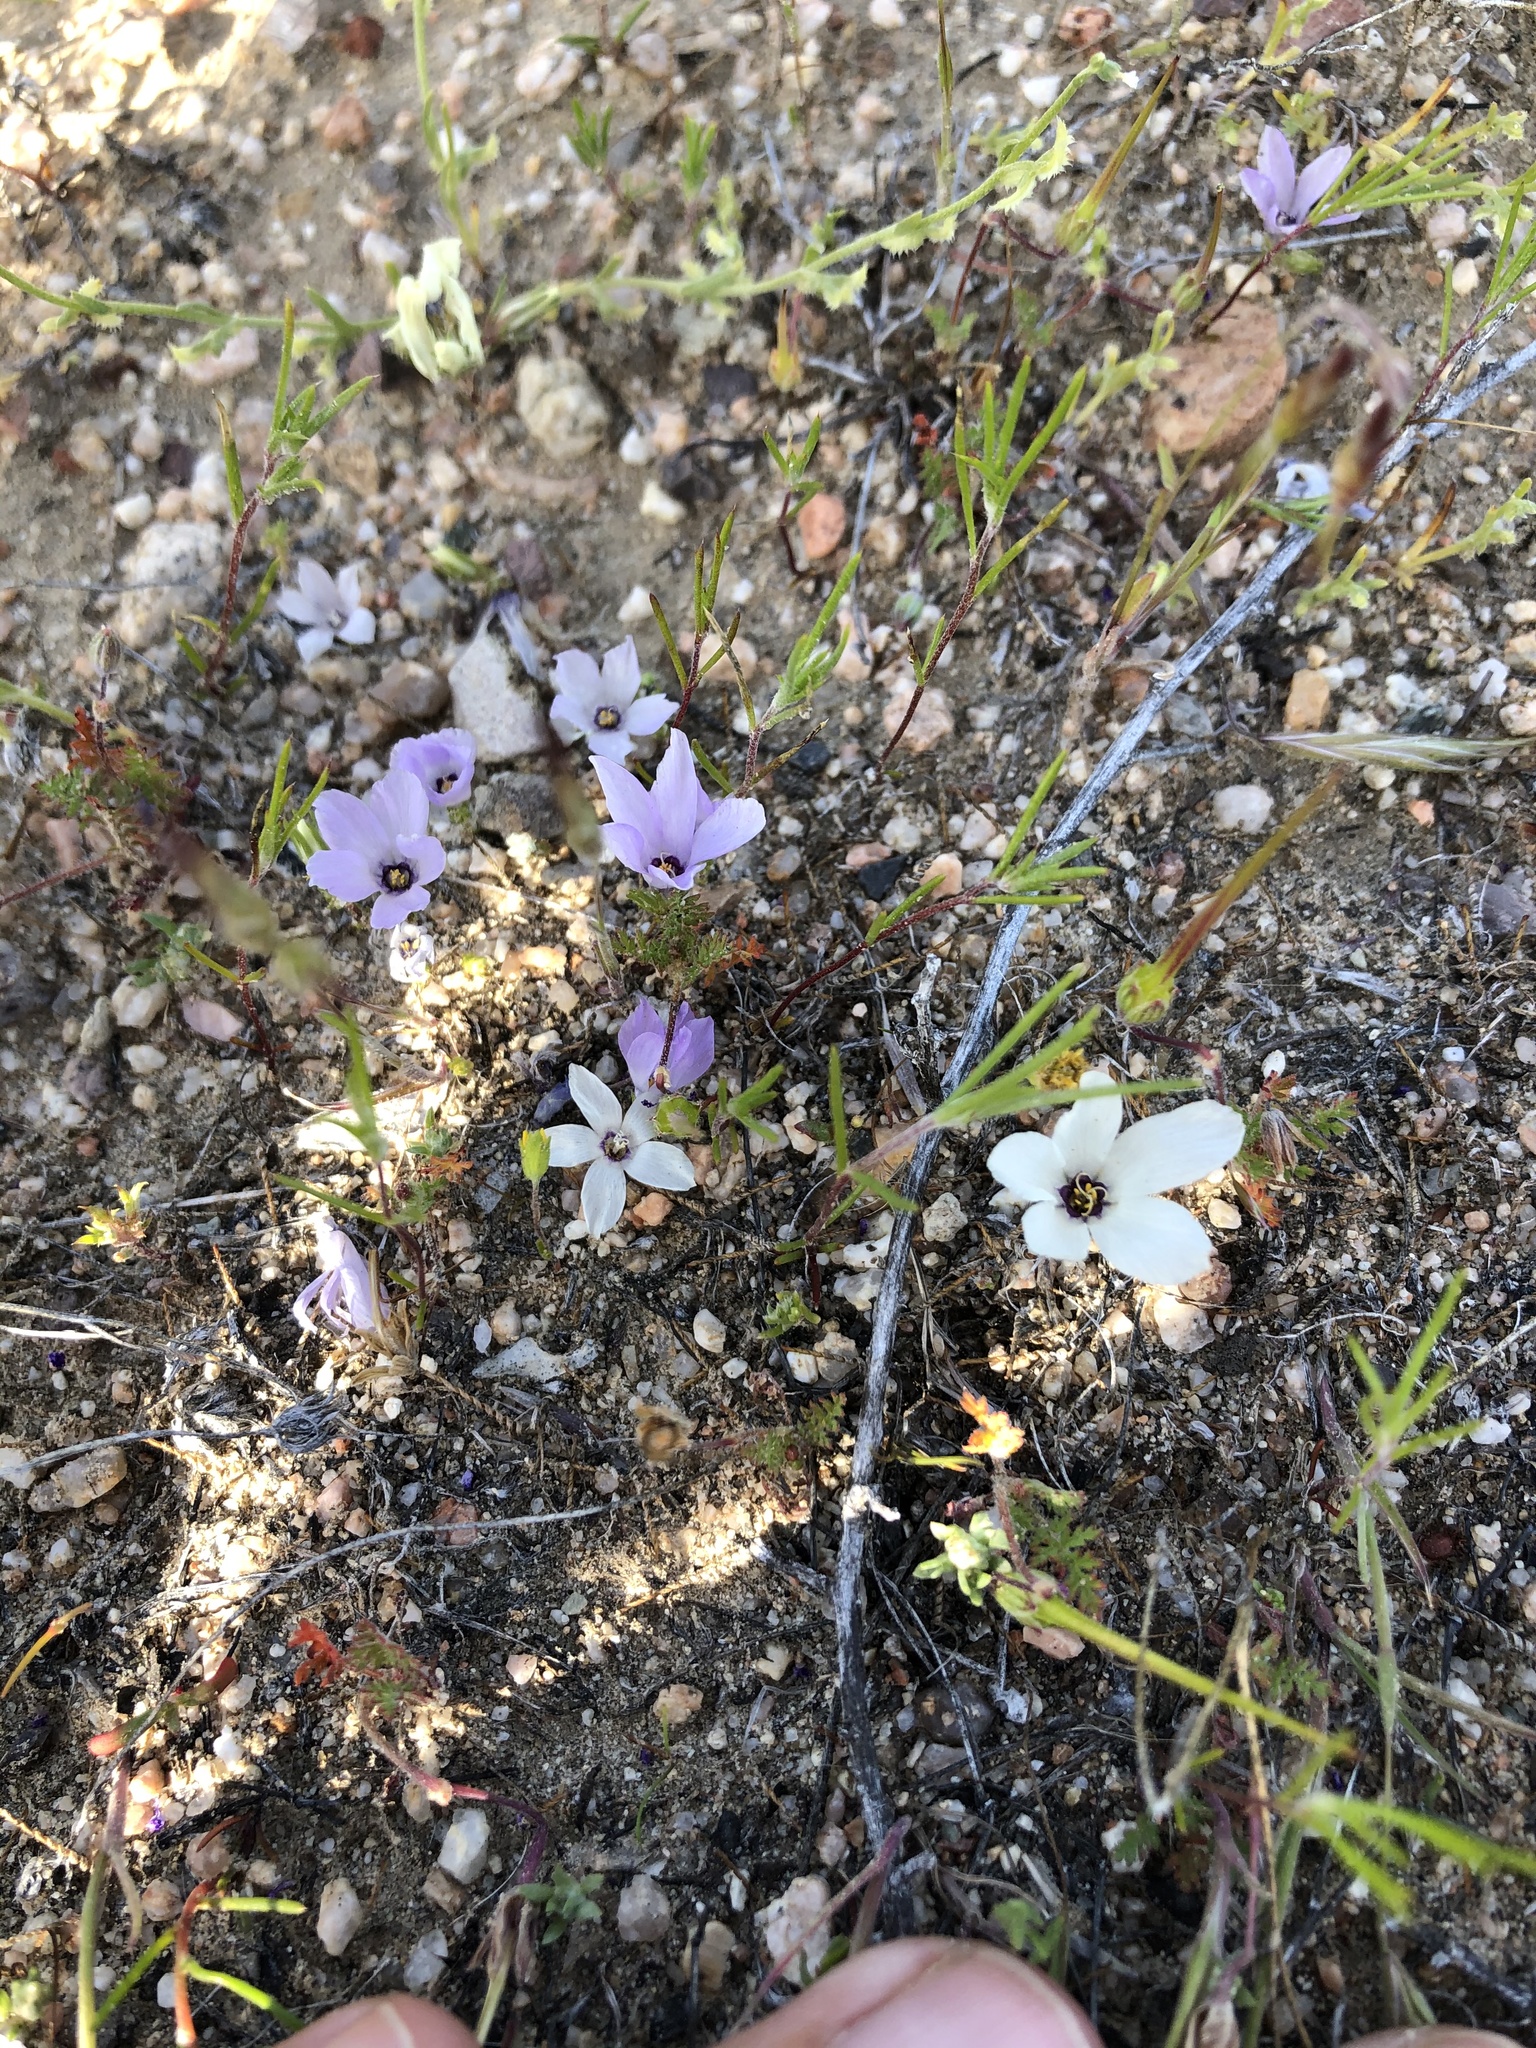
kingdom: Plantae
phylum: Tracheophyta
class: Magnoliopsida
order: Ericales
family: Polemoniaceae
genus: Linanthus
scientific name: Linanthus parryae
